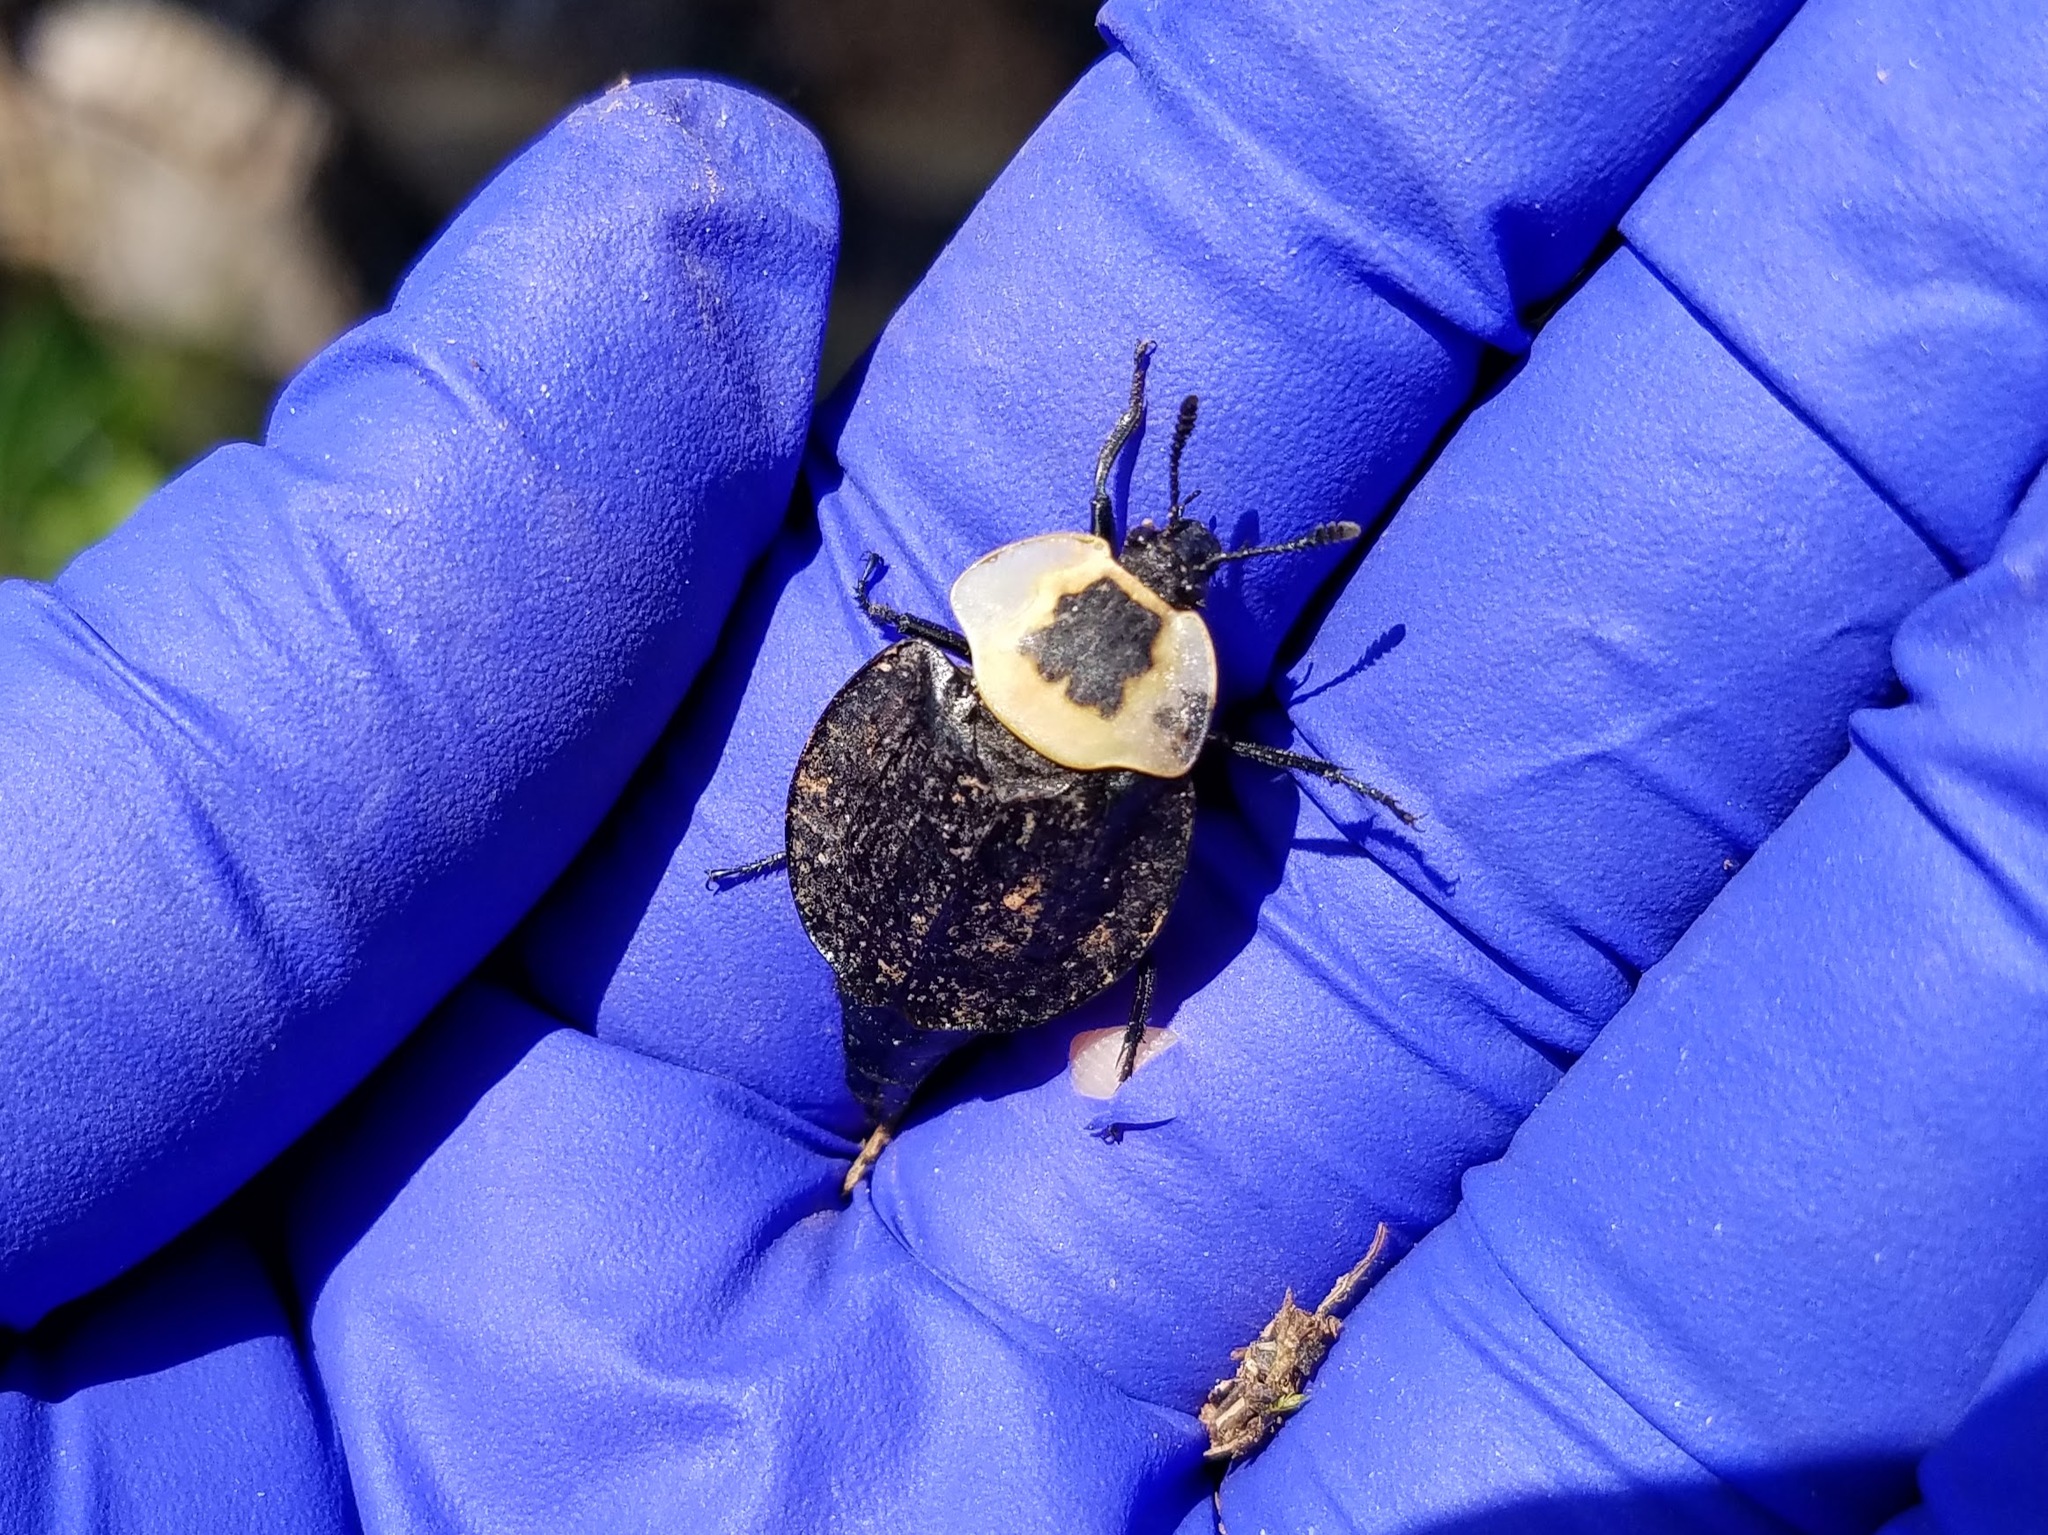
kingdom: Animalia
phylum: Arthropoda
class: Insecta
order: Coleoptera
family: Staphylinidae
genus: Necrophila
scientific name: Necrophila americana
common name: American carrion beetle
